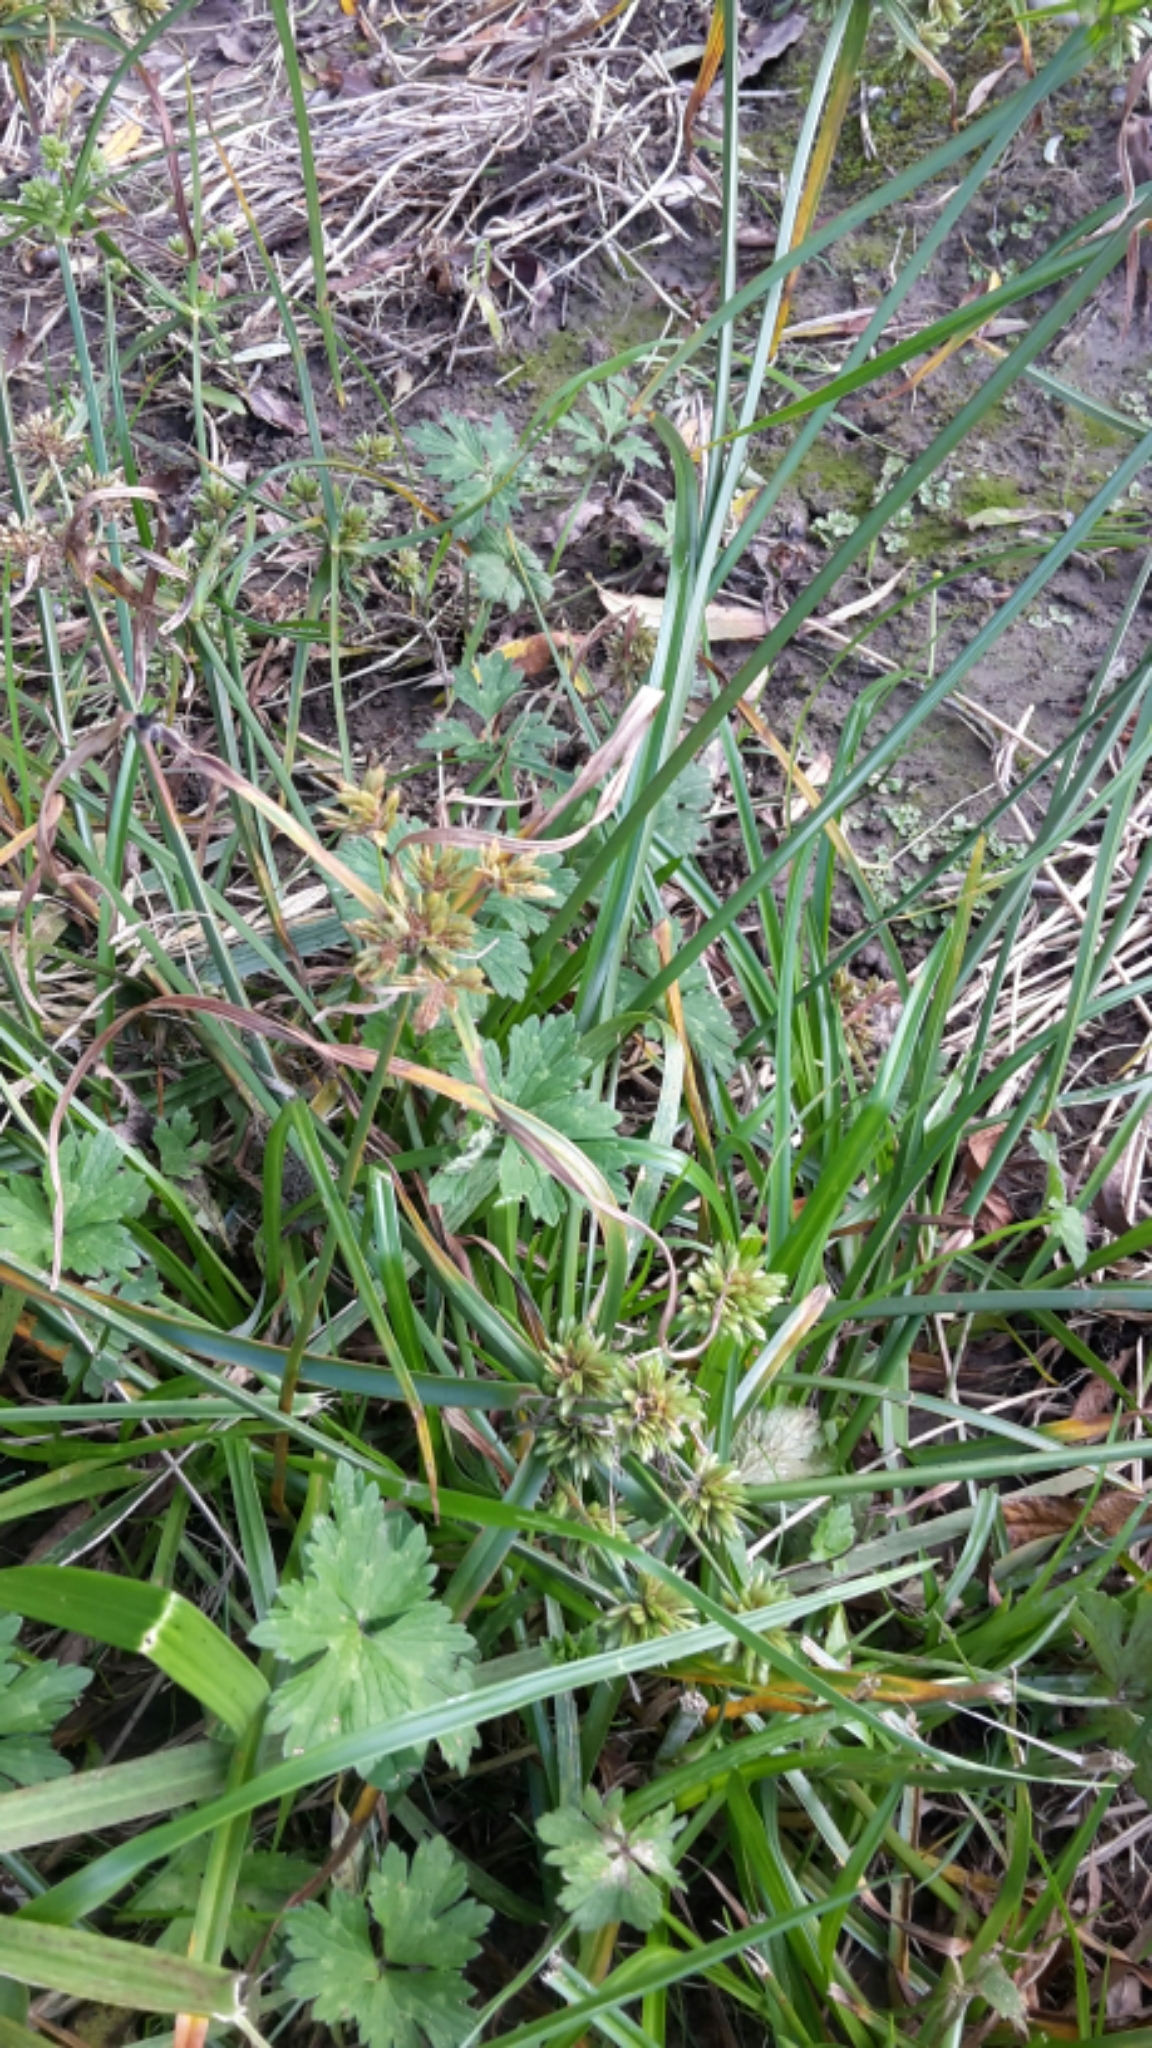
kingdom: Plantae
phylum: Tracheophyta
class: Liliopsida
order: Poales
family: Cyperaceae
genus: Cyperus
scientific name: Cyperus eragrostis
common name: Tall flatsedge
